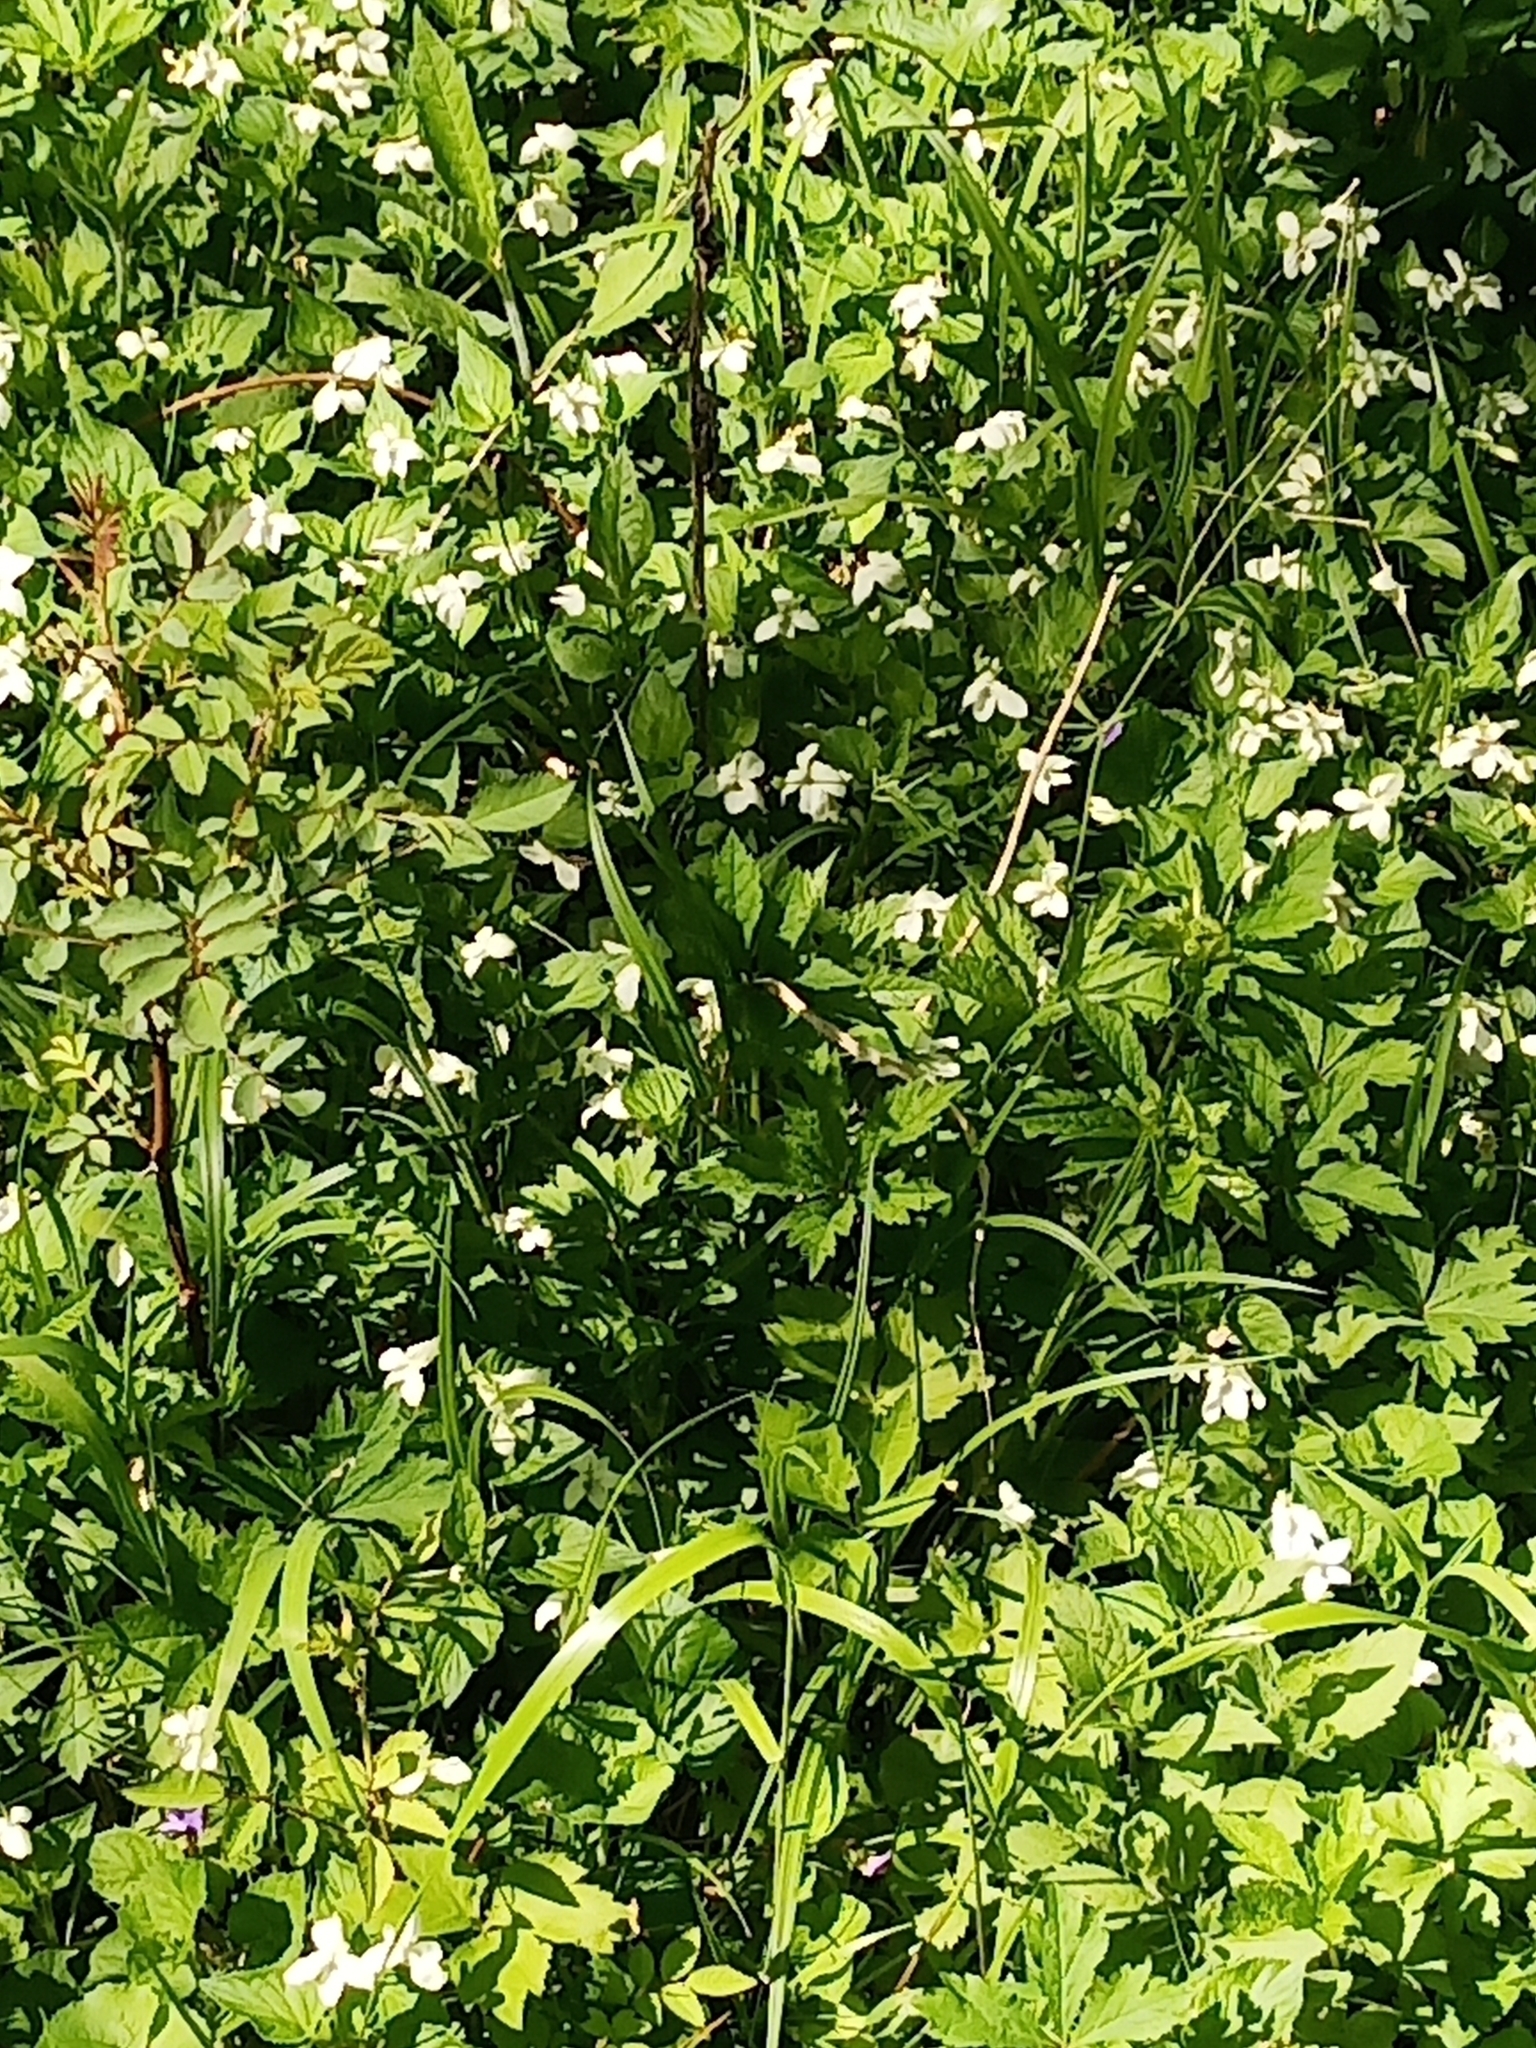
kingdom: Plantae
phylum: Tracheophyta
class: Magnoliopsida
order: Malpighiales
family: Violaceae
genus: Viola
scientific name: Viola striata
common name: Cream violet
